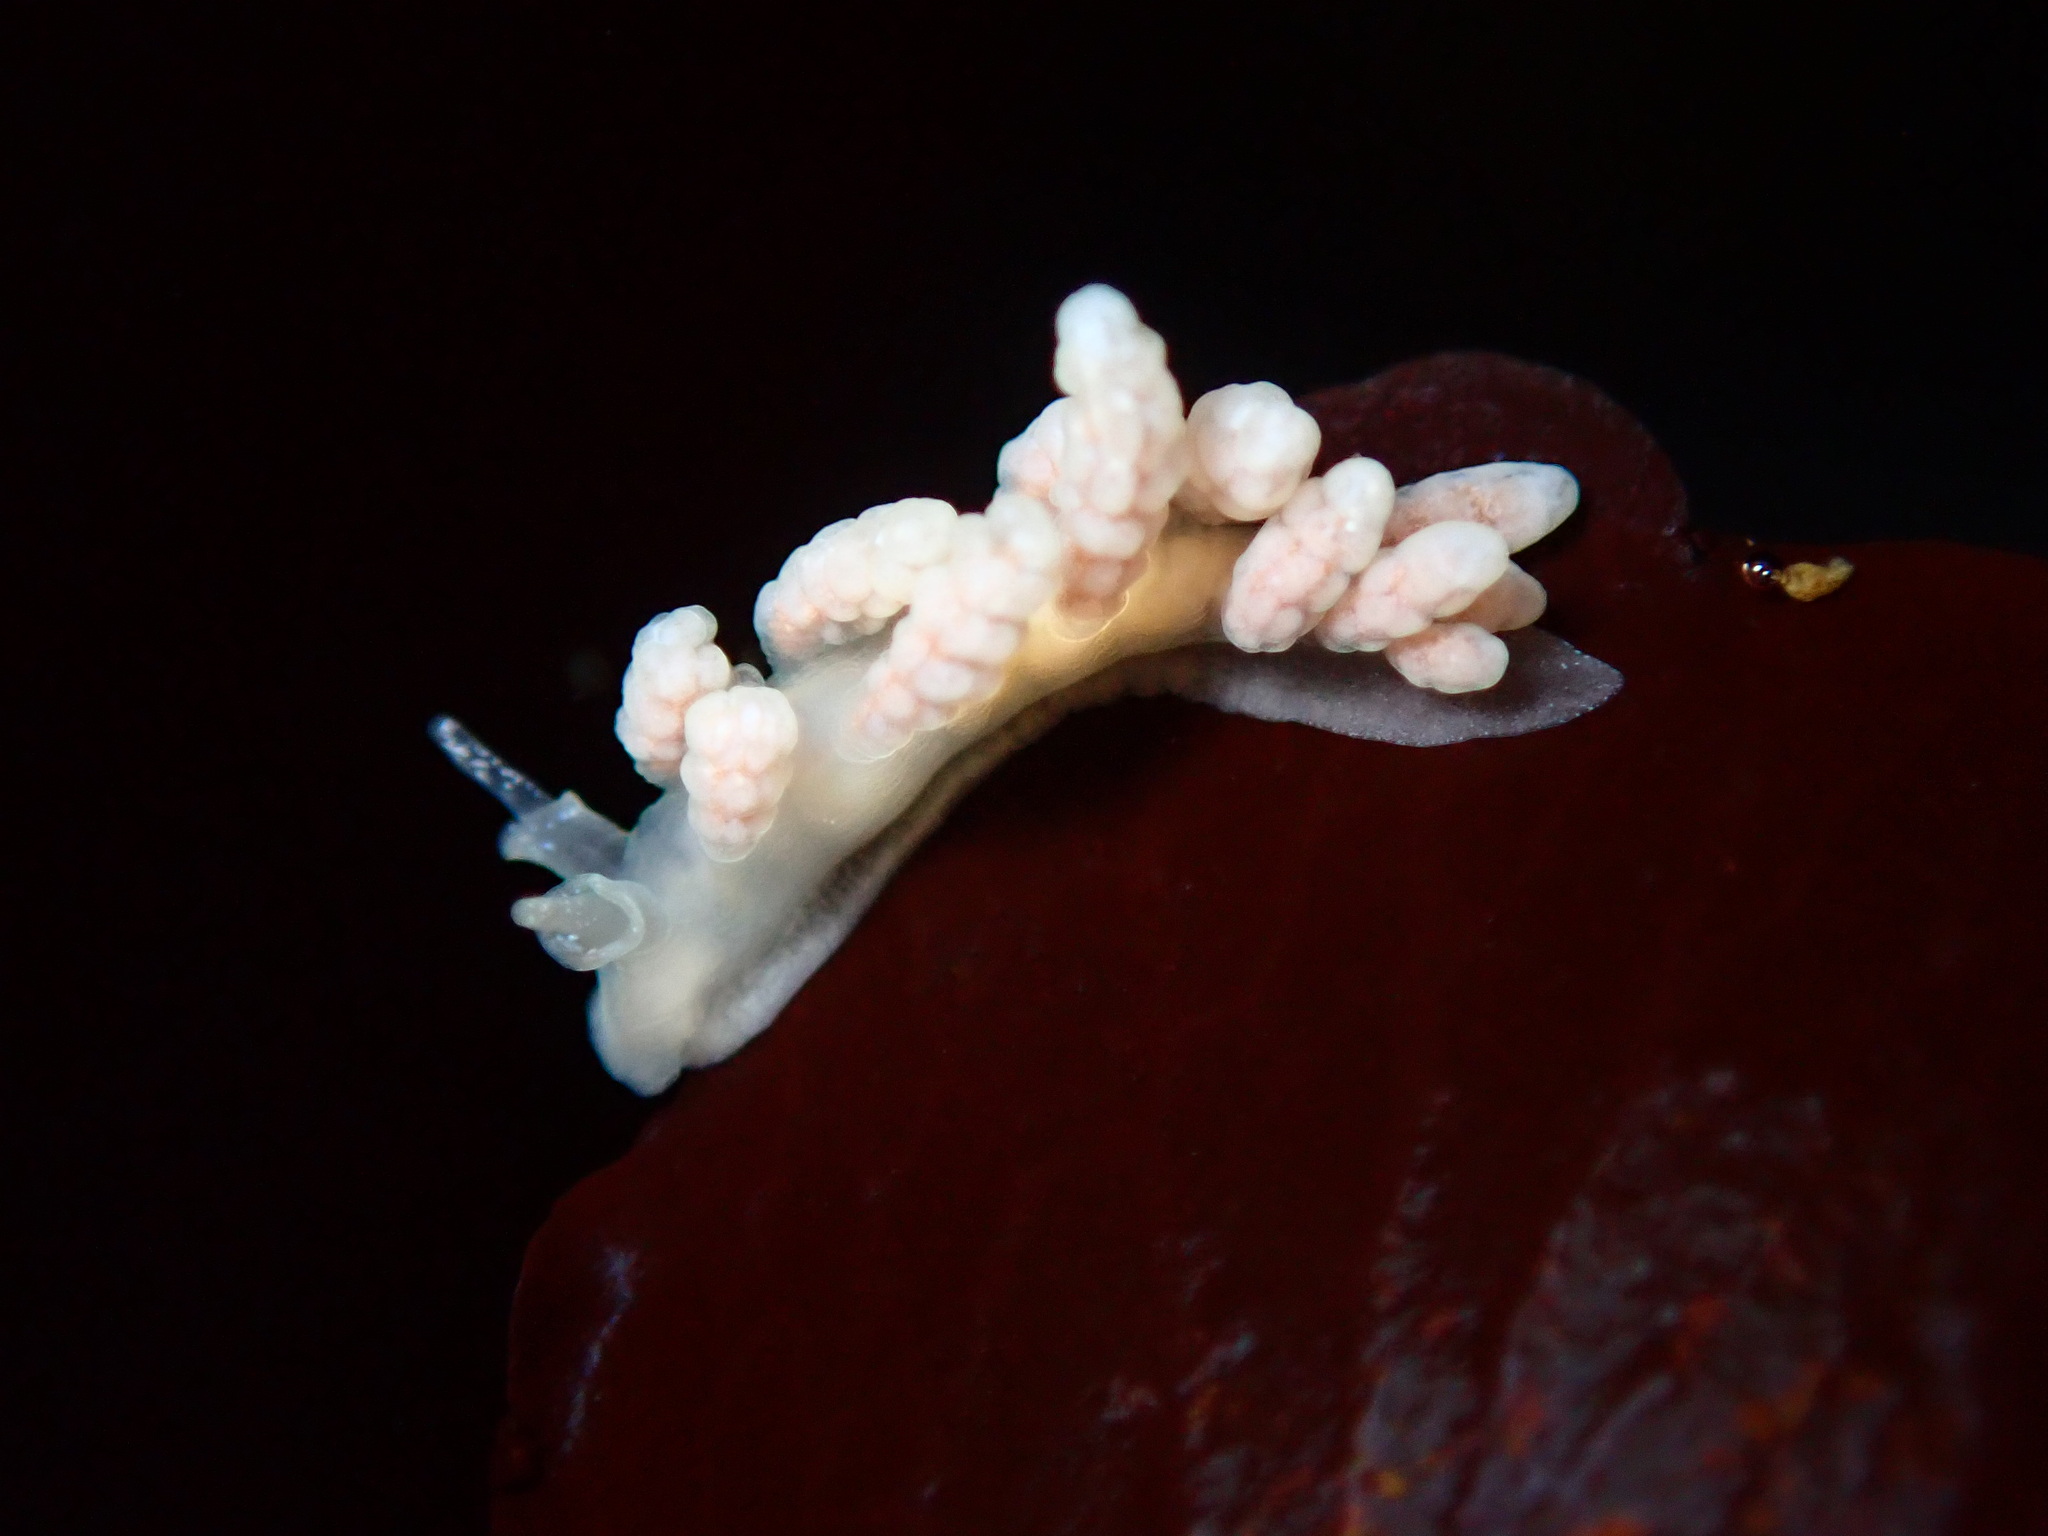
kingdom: Animalia
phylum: Mollusca
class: Gastropoda
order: Nudibranchia
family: Dotidae
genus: Doto
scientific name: Doto amyra
